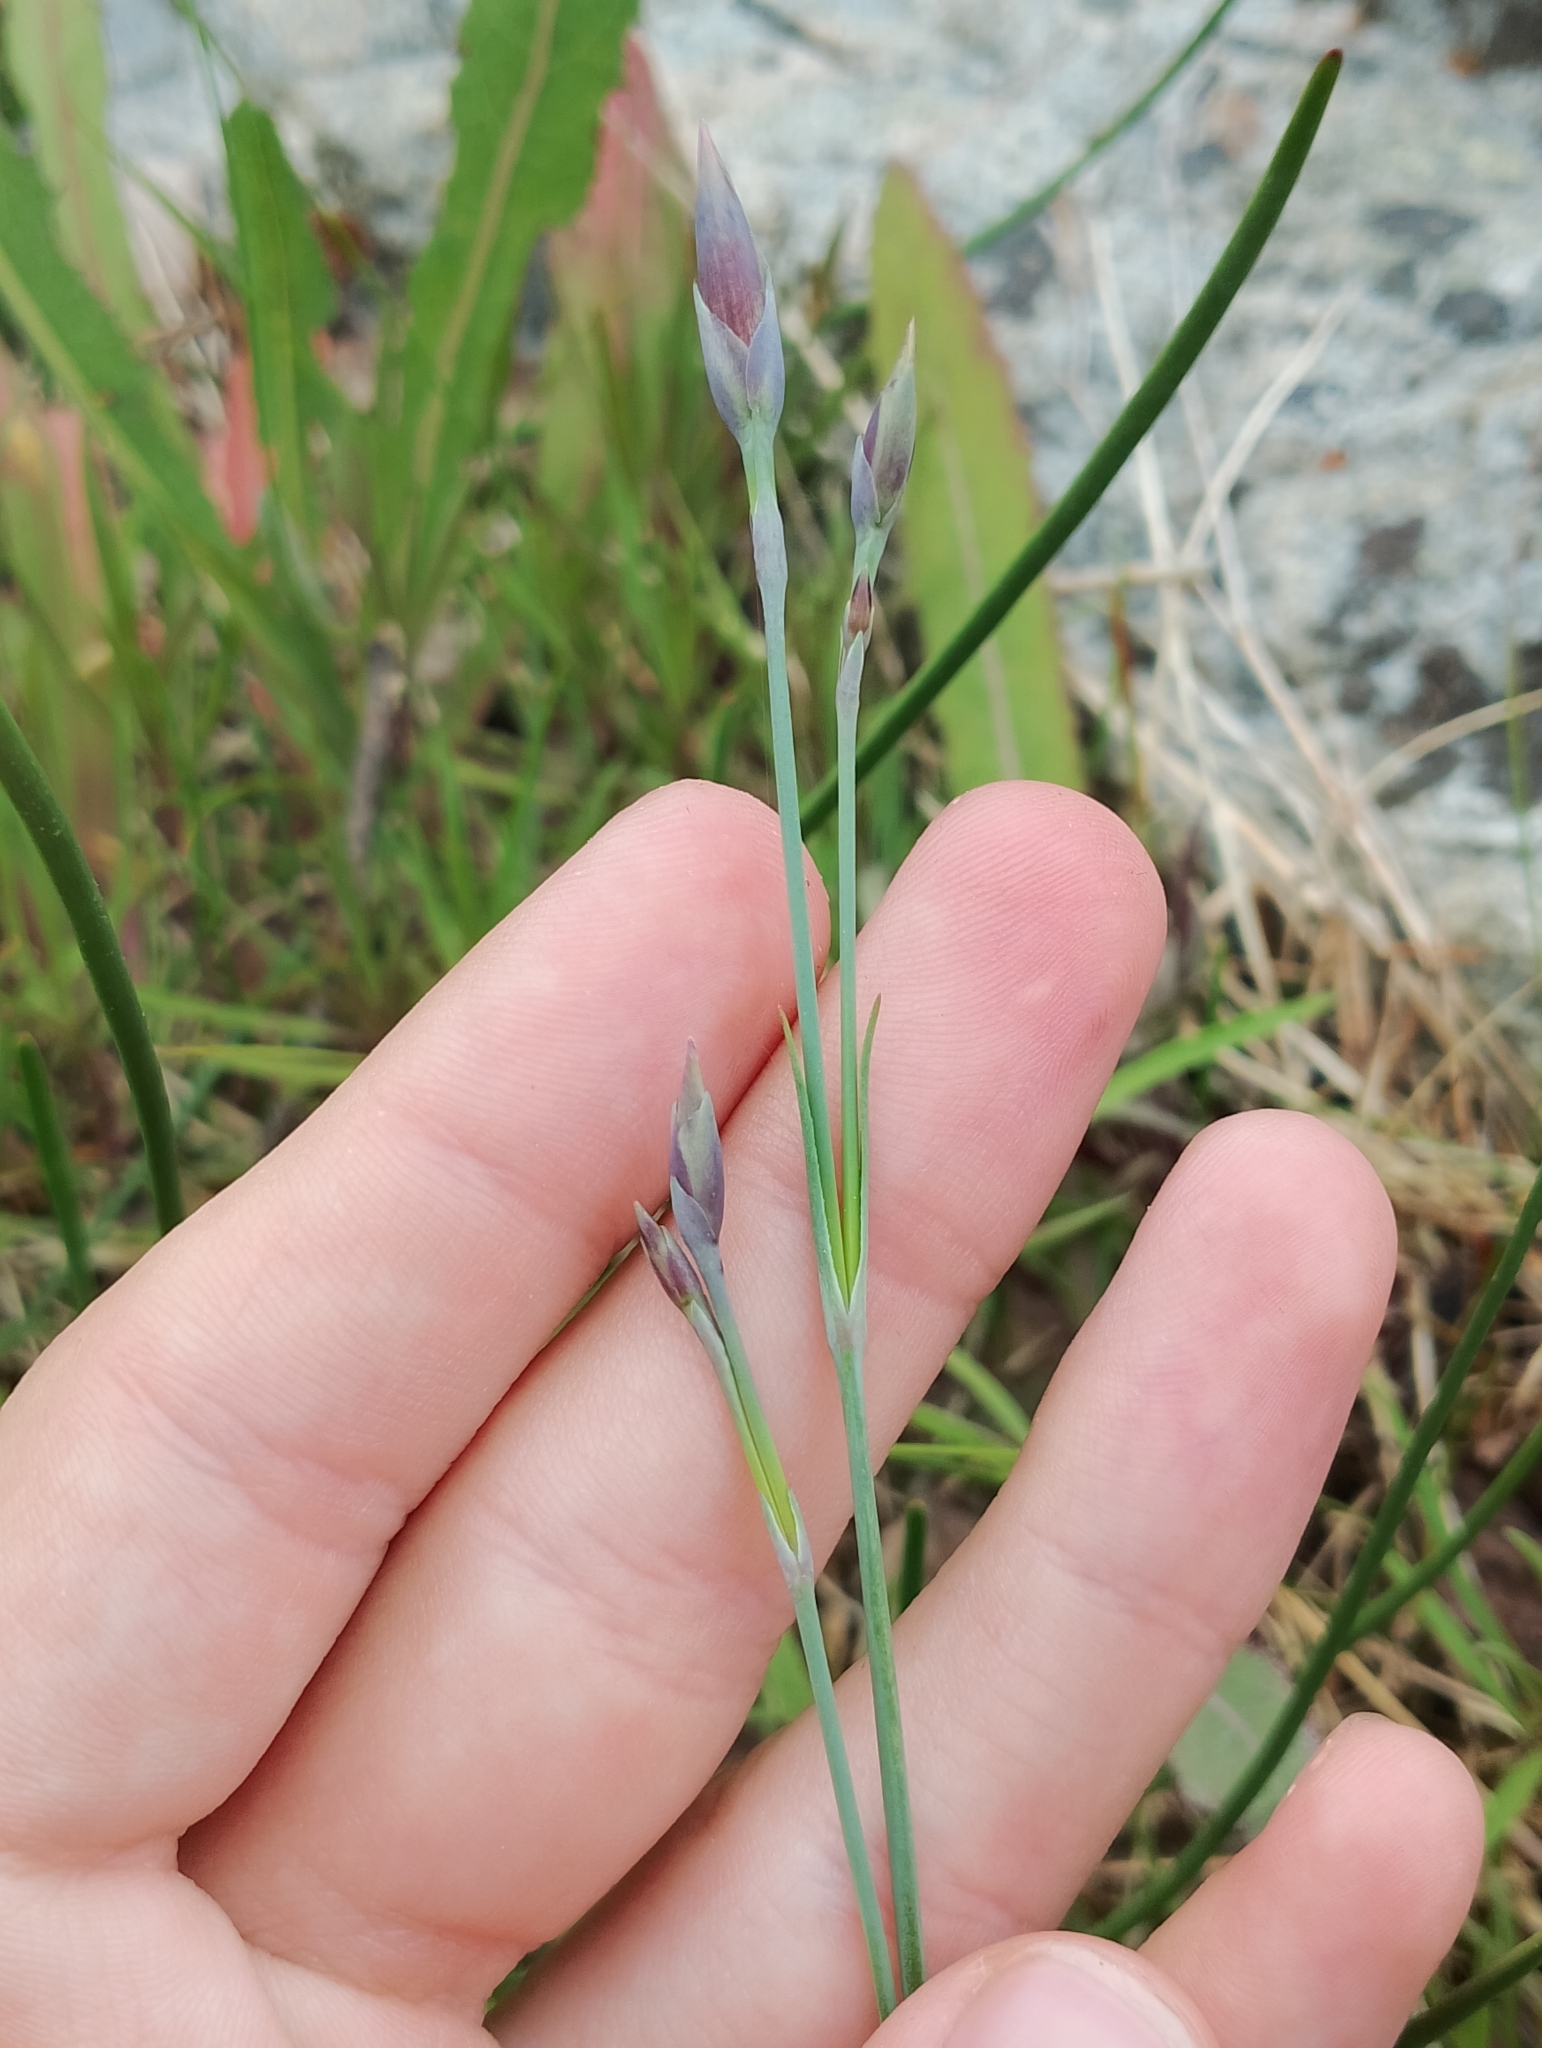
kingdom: Plantae
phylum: Tracheophyta
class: Magnoliopsida
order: Caryophyllales
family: Caryophyllaceae
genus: Dianthus
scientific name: Dianthus superbus
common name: Fringed pink
